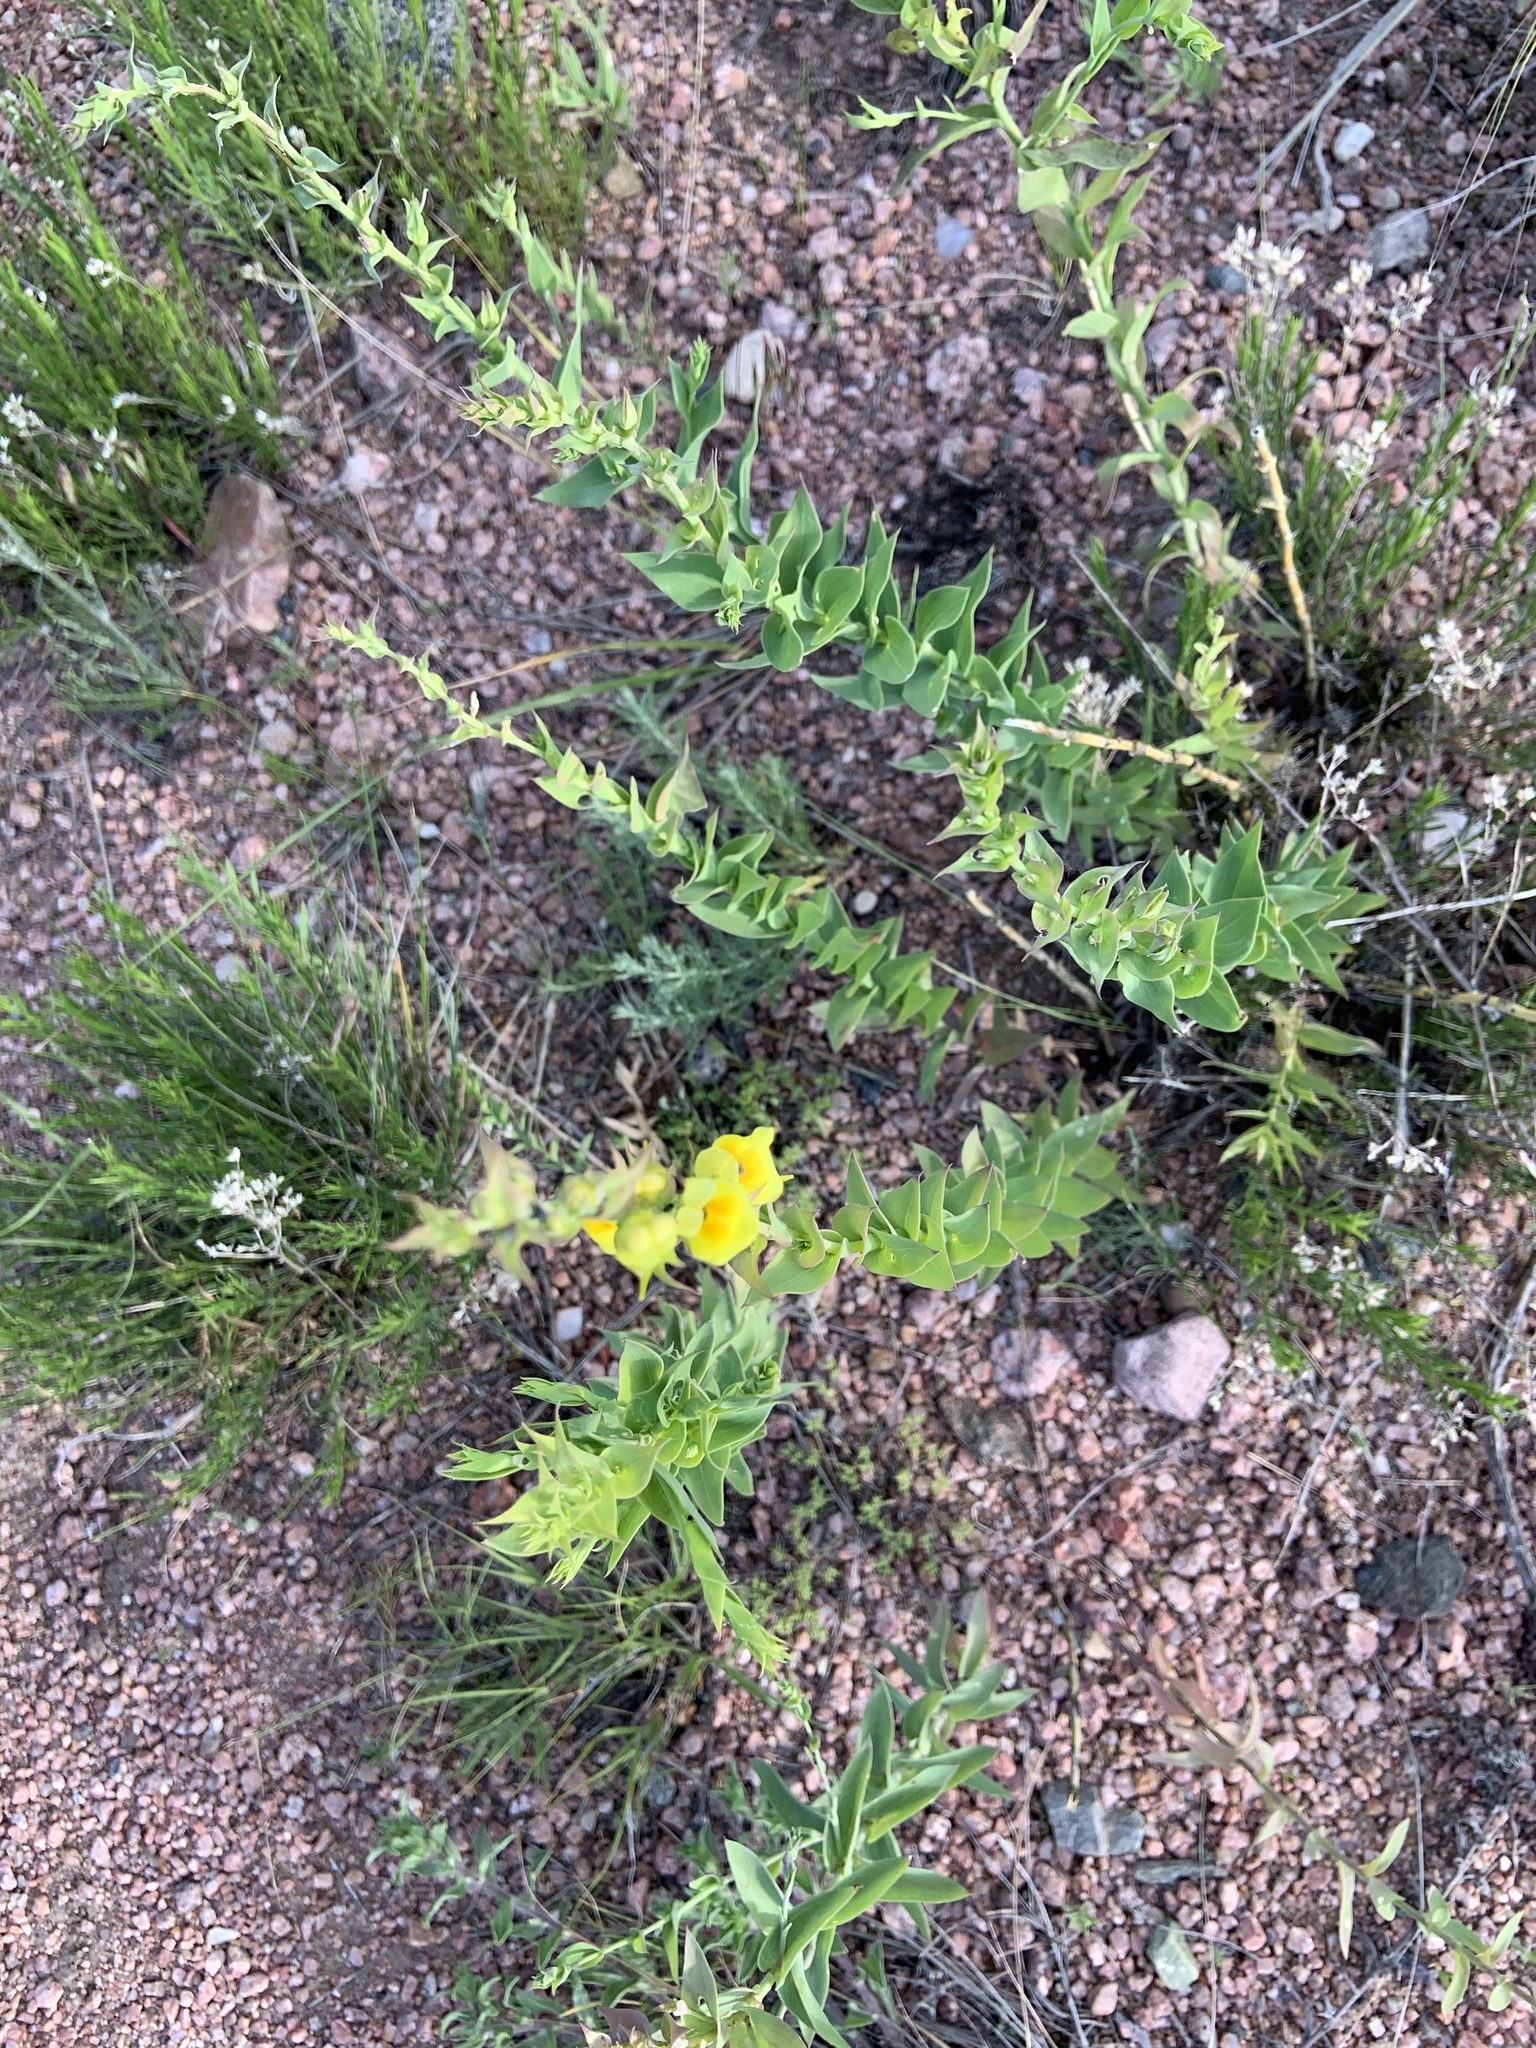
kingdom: Plantae
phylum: Tracheophyta
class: Magnoliopsida
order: Lamiales
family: Plantaginaceae
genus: Linaria
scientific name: Linaria dalmatica
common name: Dalmatian toadflax
